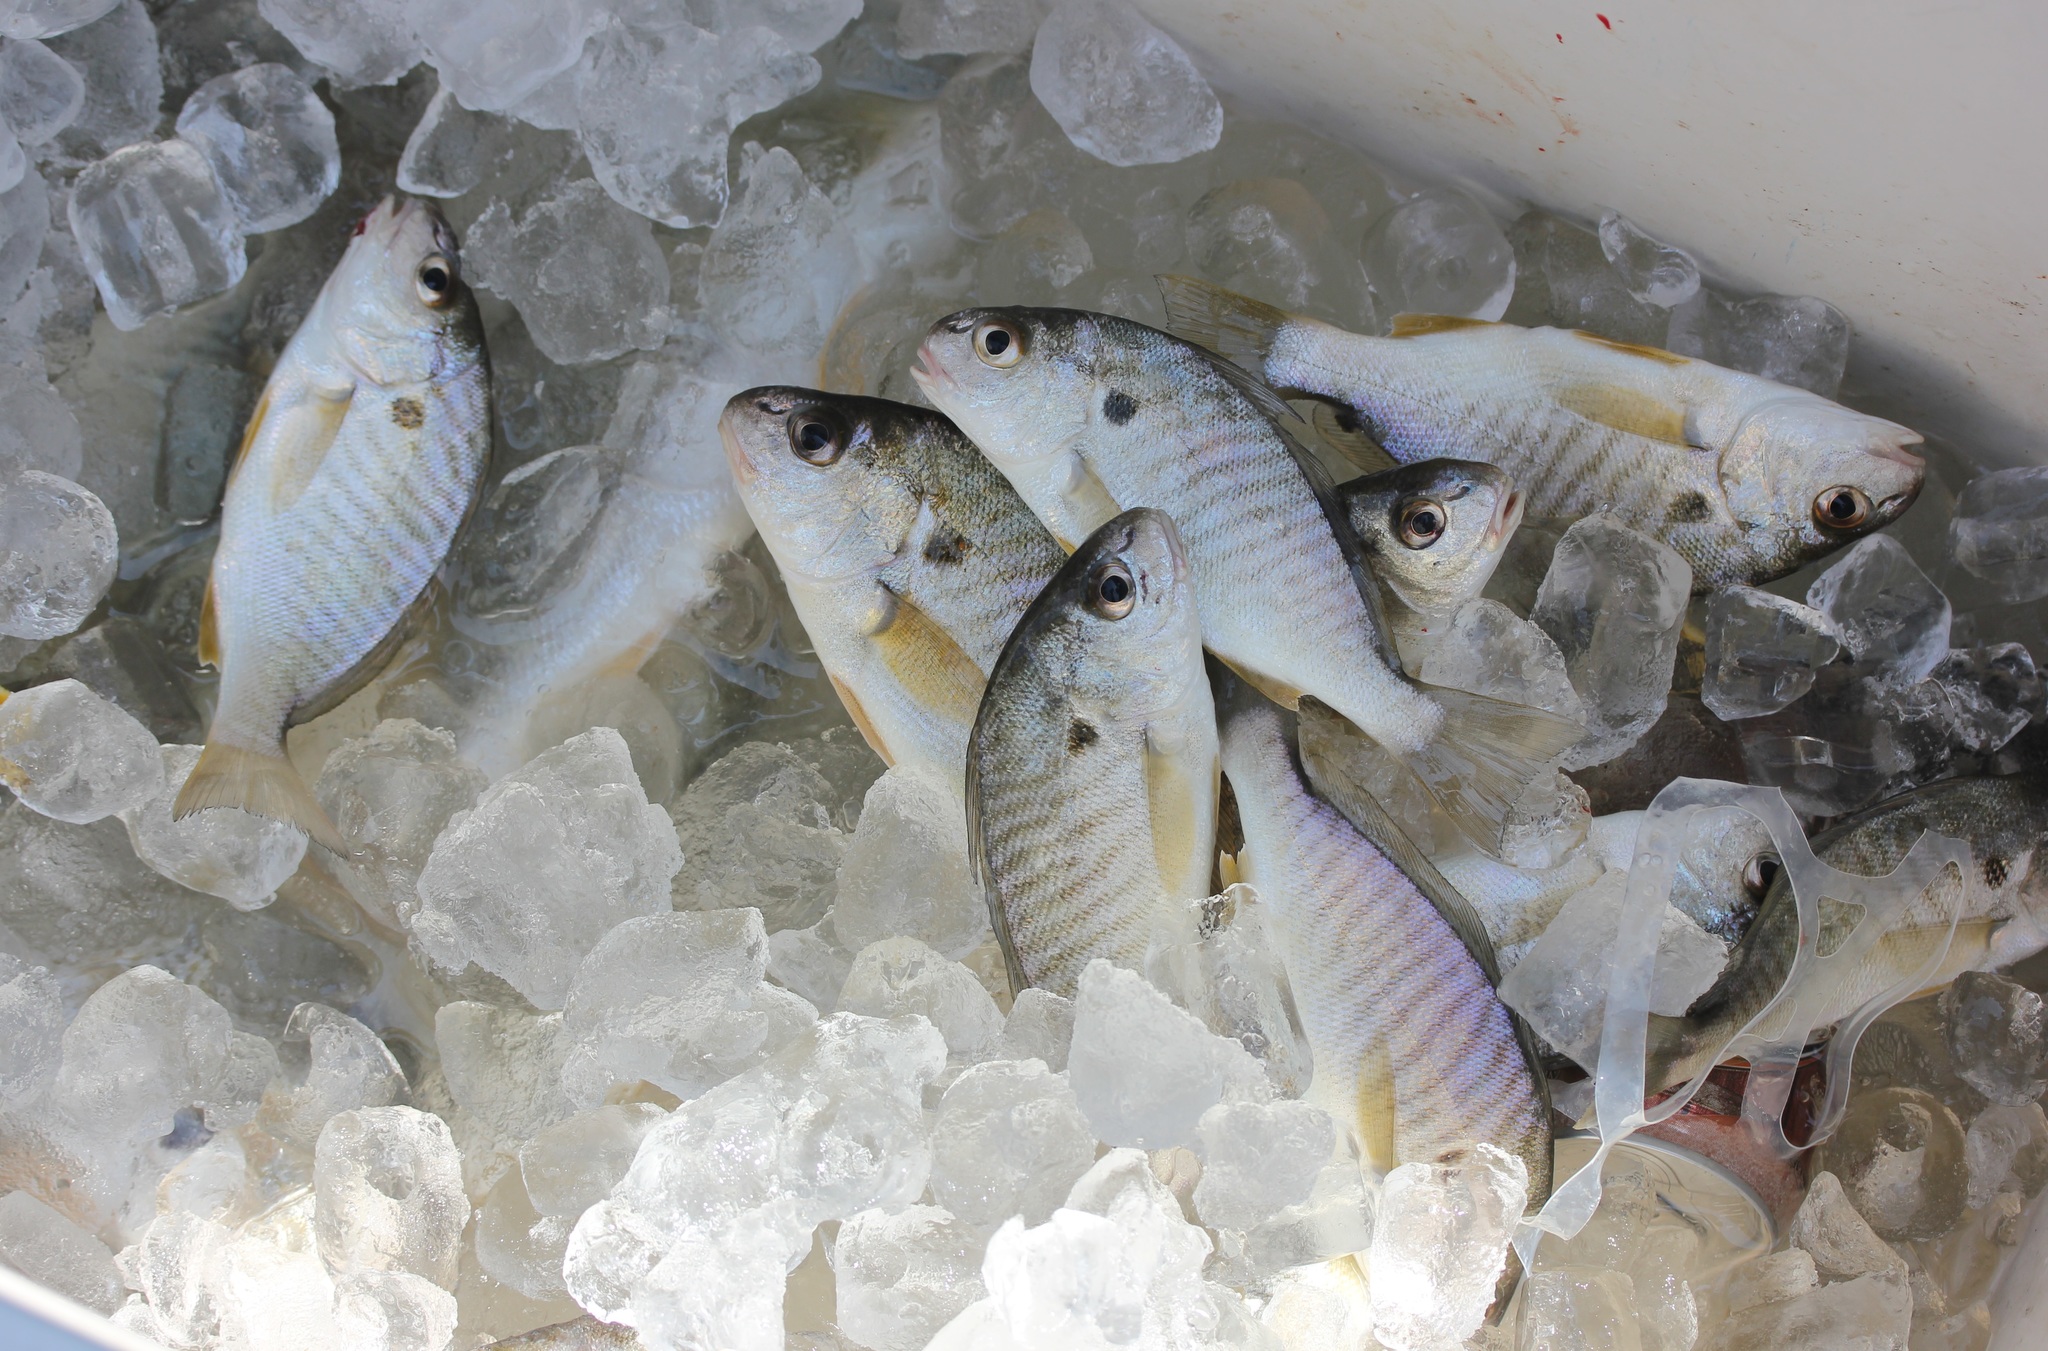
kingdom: Animalia
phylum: Chordata
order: Perciformes
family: Sciaenidae
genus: Leiostomus
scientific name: Leiostomus xanthurus
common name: Spot
